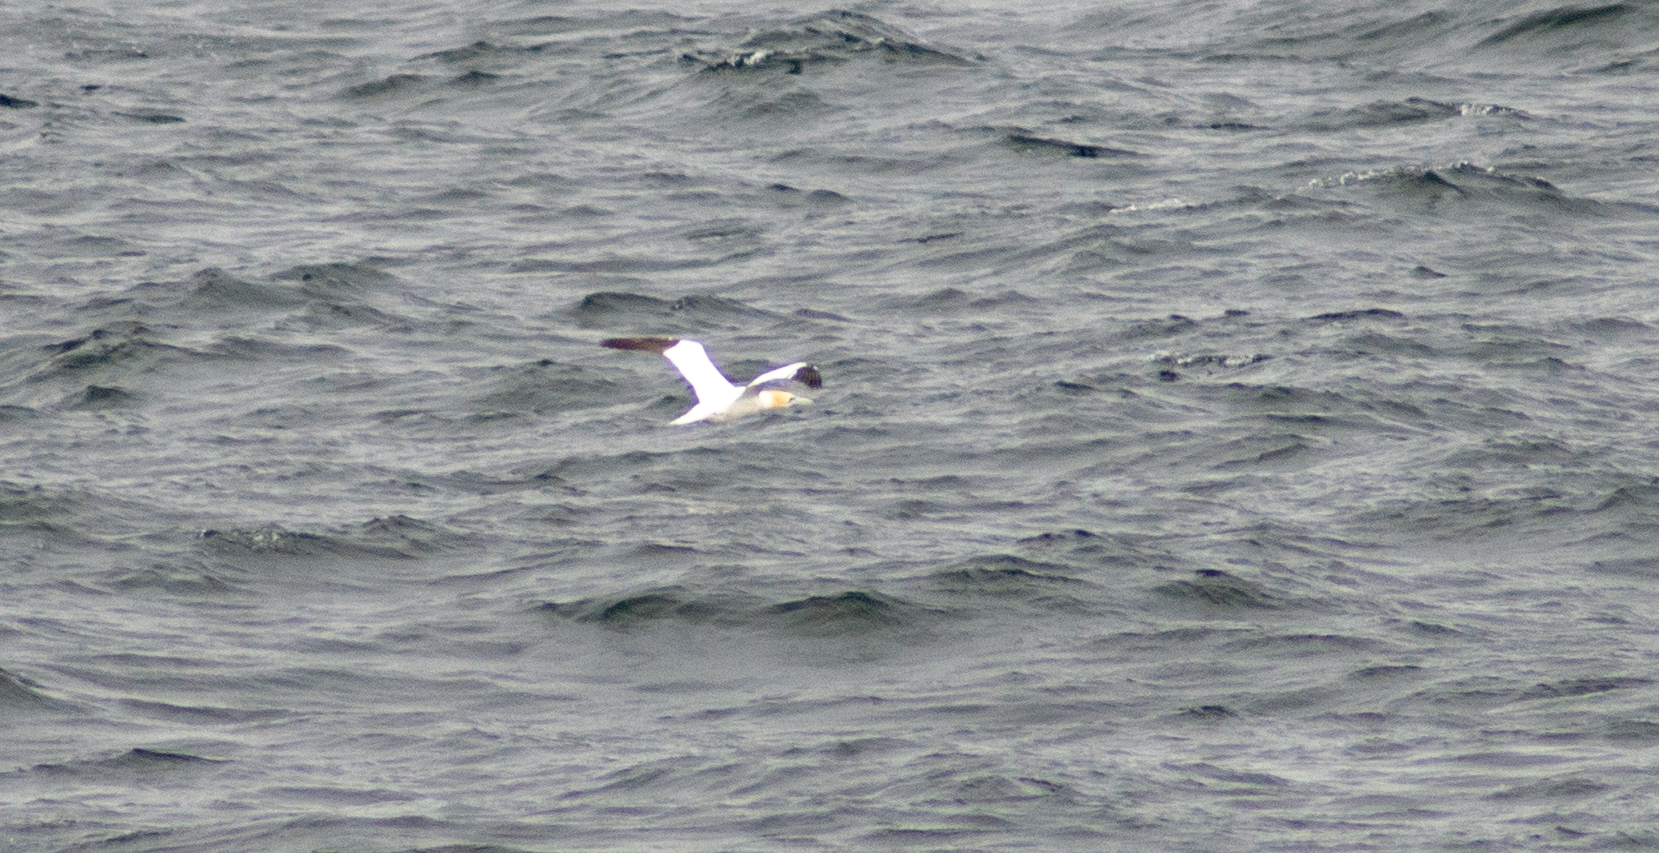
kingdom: Animalia
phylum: Chordata
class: Aves
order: Suliformes
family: Sulidae
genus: Morus
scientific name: Morus bassanus
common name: Northern gannet
